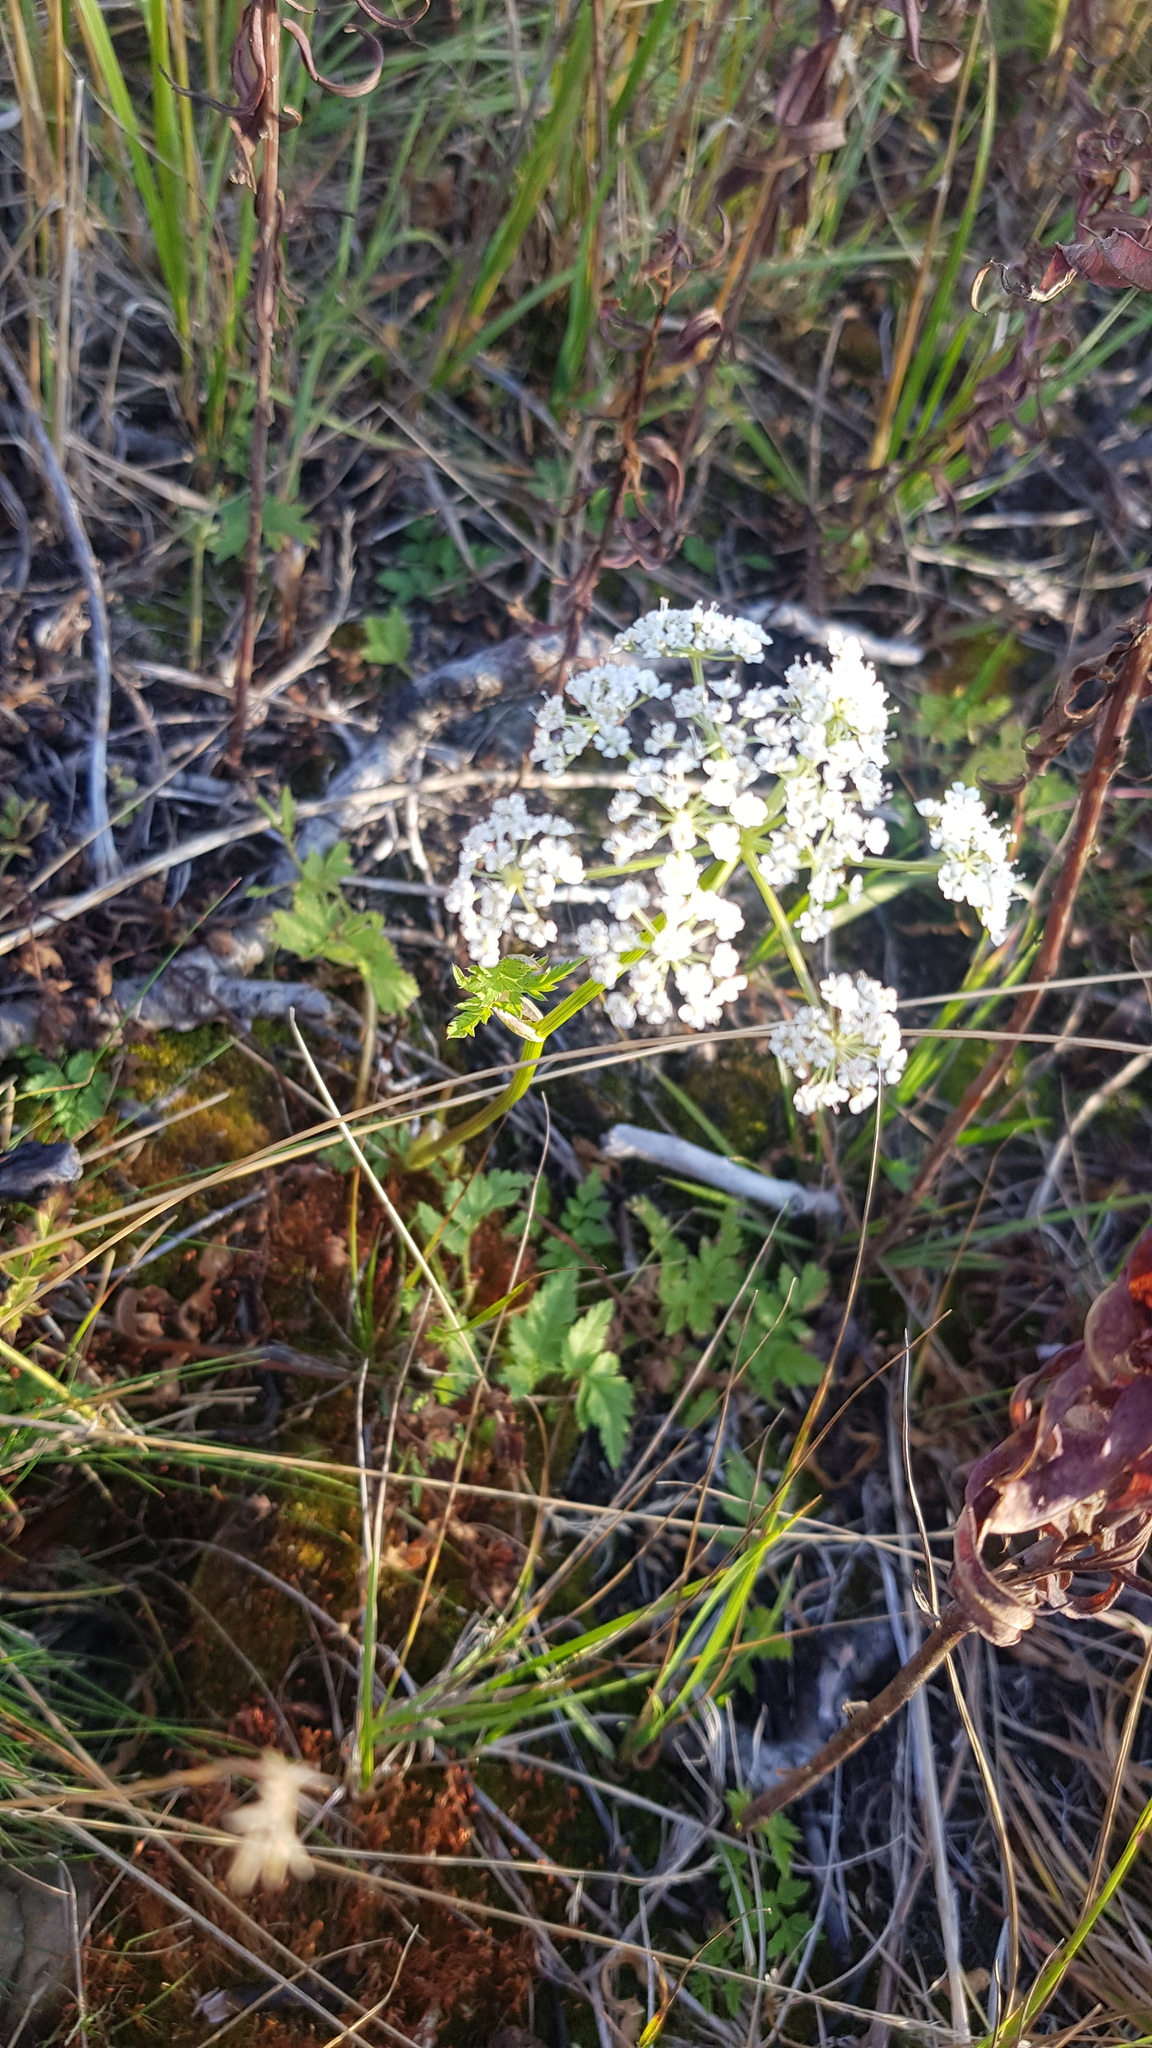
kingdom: Plantae
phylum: Tracheophyta
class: Magnoliopsida
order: Apiales
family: Apiaceae
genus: Aegopodium
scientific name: Aegopodium alpestre
